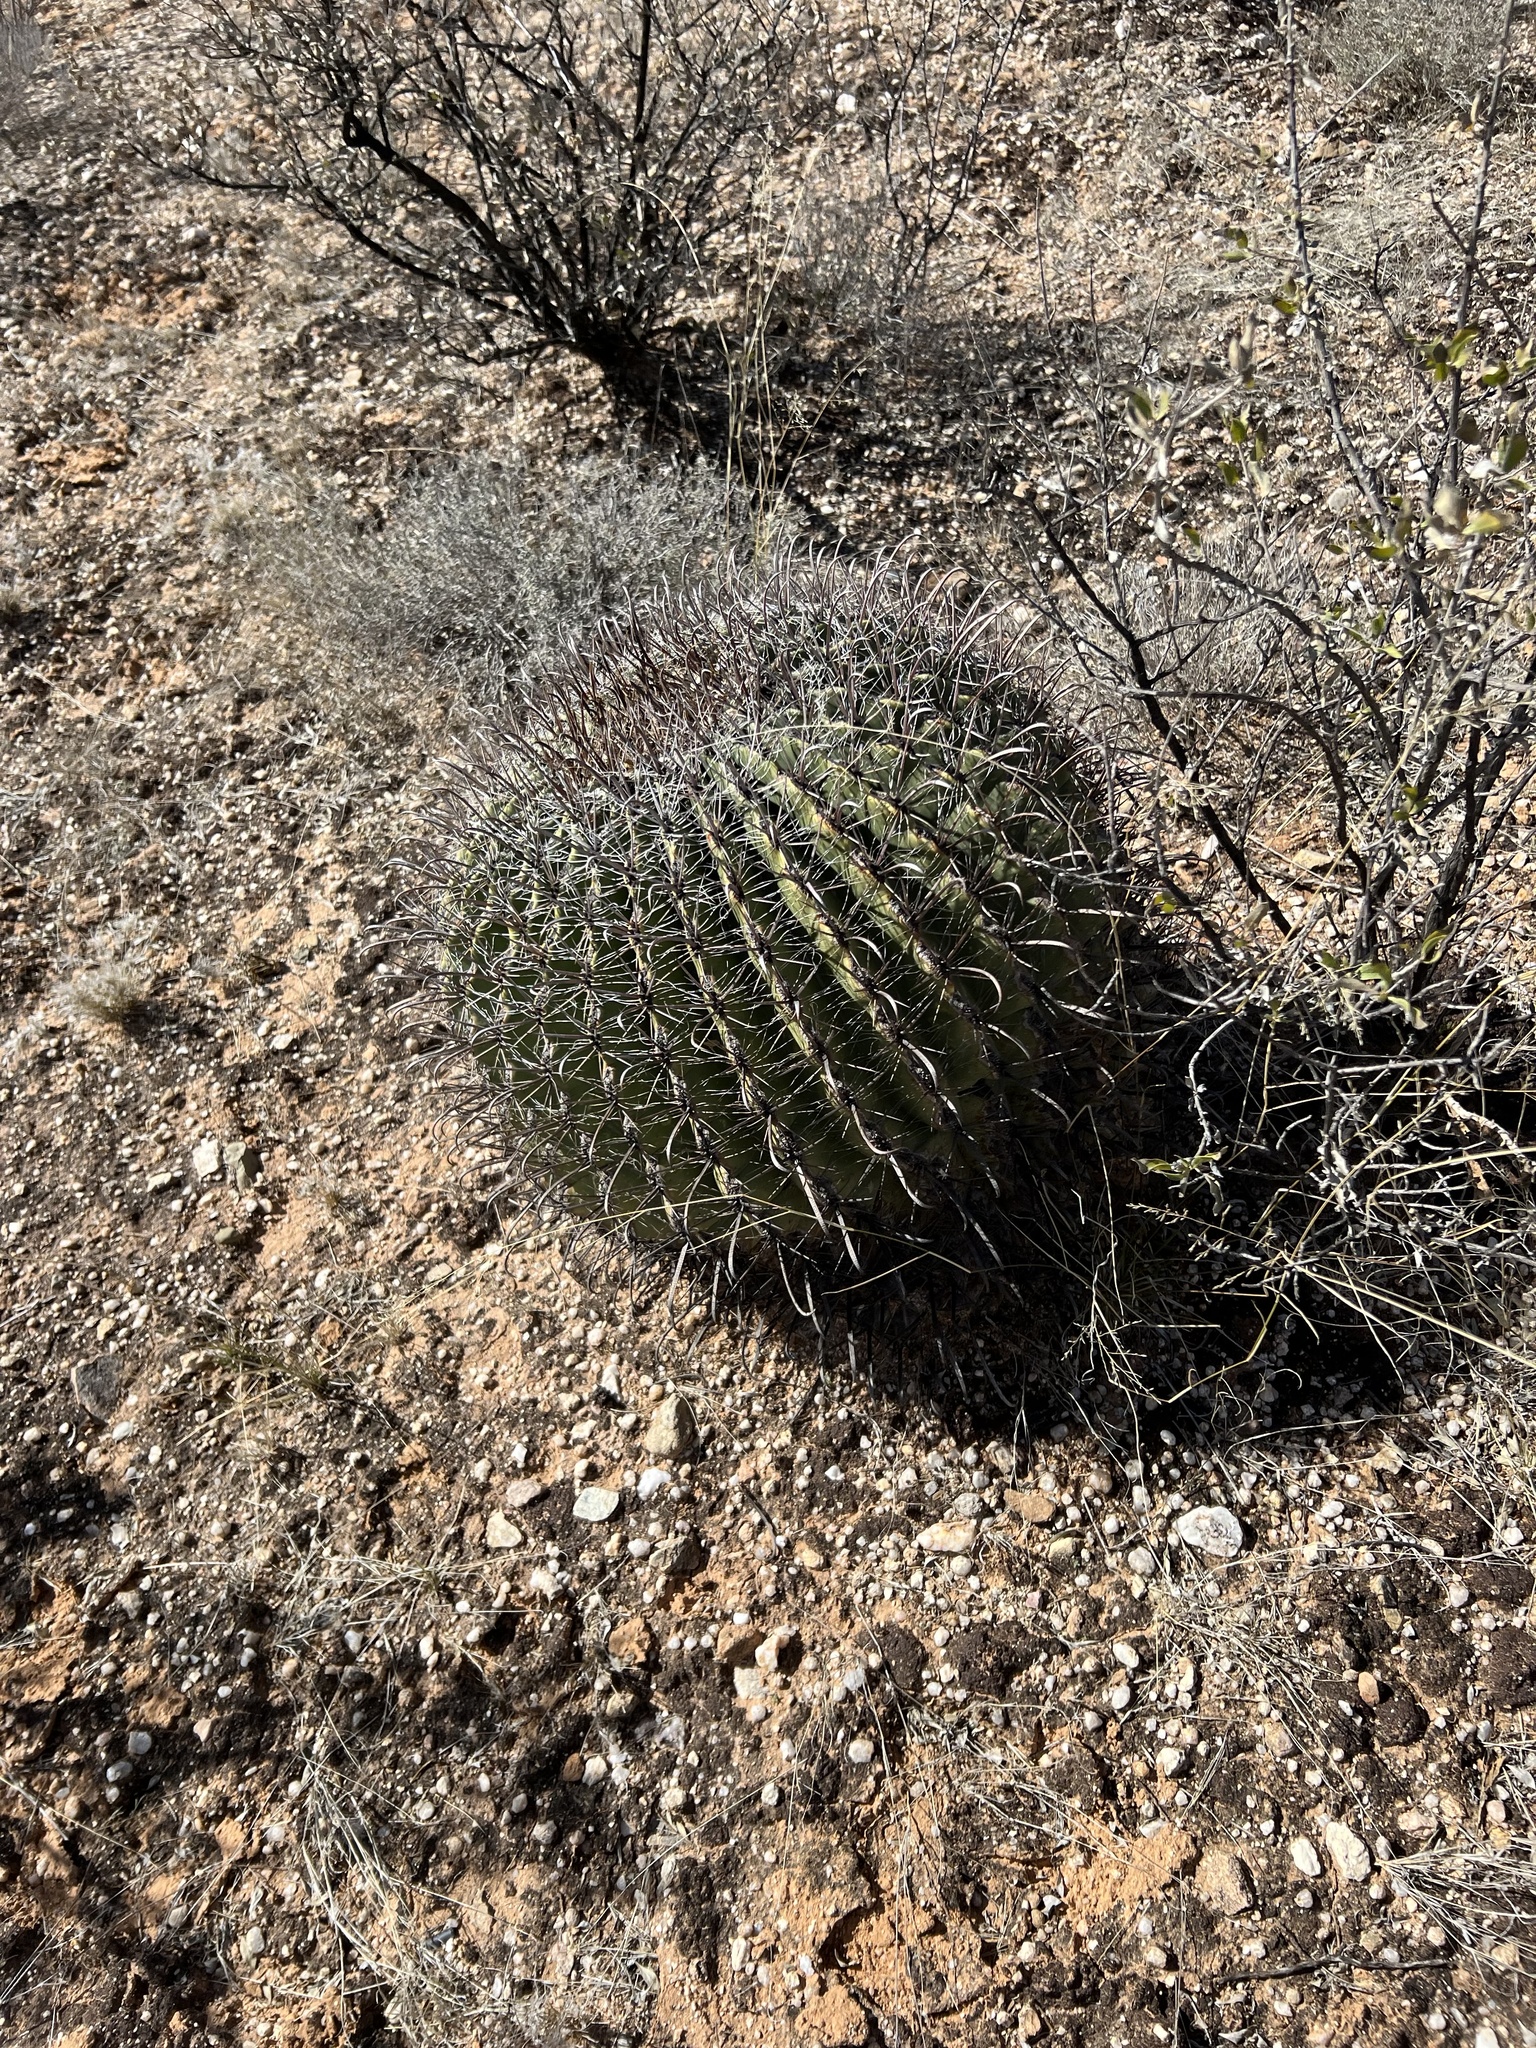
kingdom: Plantae
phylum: Tracheophyta
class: Magnoliopsida
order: Caryophyllales
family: Cactaceae
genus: Ferocactus
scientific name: Ferocactus wislizeni
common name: Candy barrel cactus
